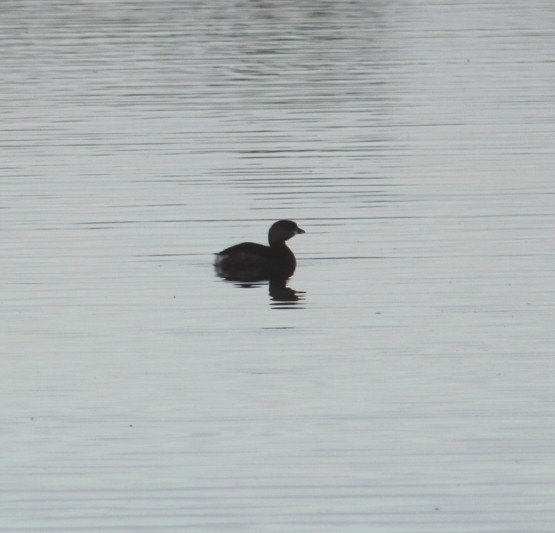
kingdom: Animalia
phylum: Chordata
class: Aves
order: Podicipediformes
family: Podicipedidae
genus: Podilymbus
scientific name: Podilymbus podiceps
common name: Pied-billed grebe
